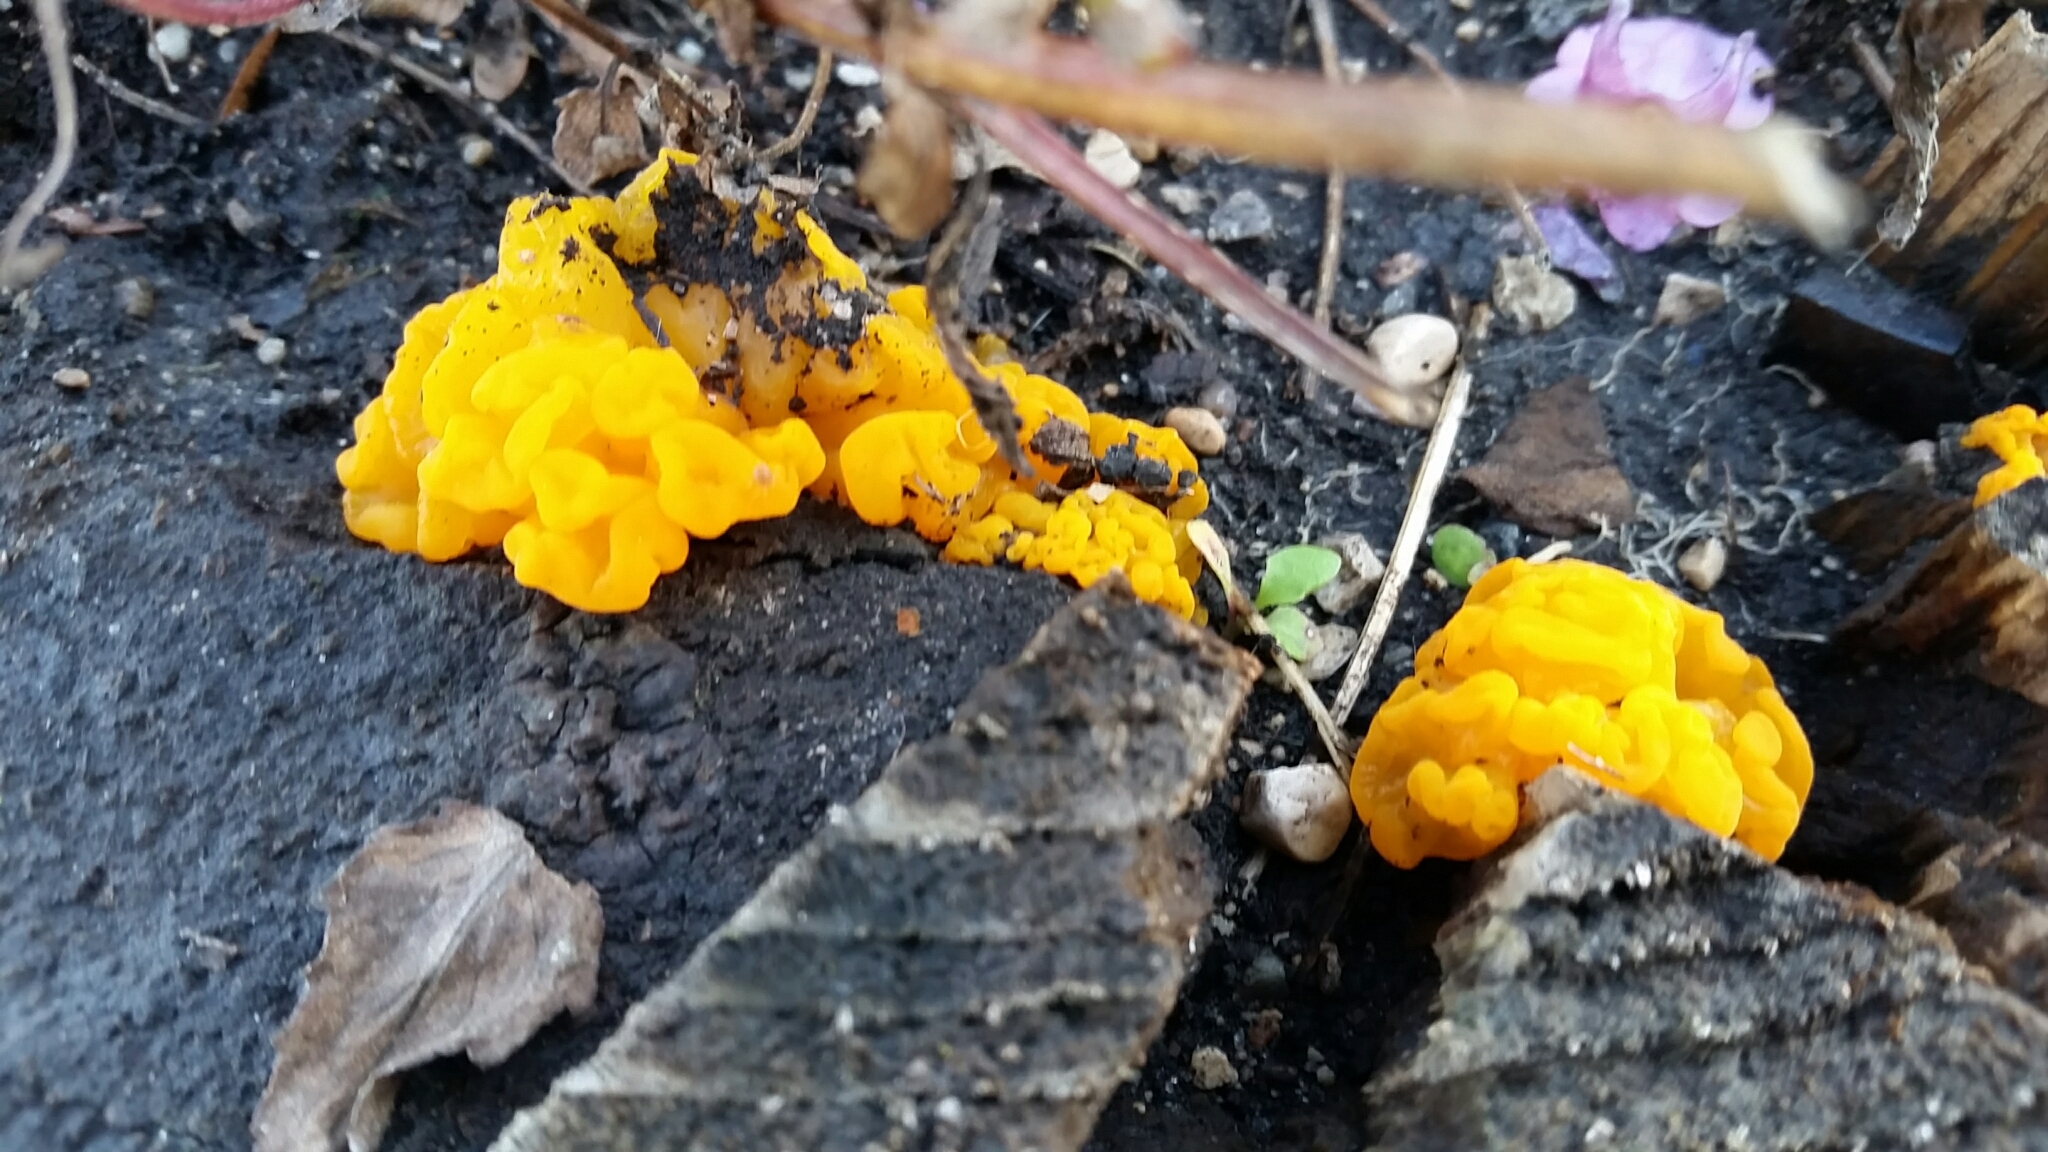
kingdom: Fungi
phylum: Basidiomycota
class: Dacrymycetes
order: Dacrymycetales
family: Dacrymycetaceae
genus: Dacrymyces
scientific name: Dacrymyces chrysospermus
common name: Orange jelly spot
